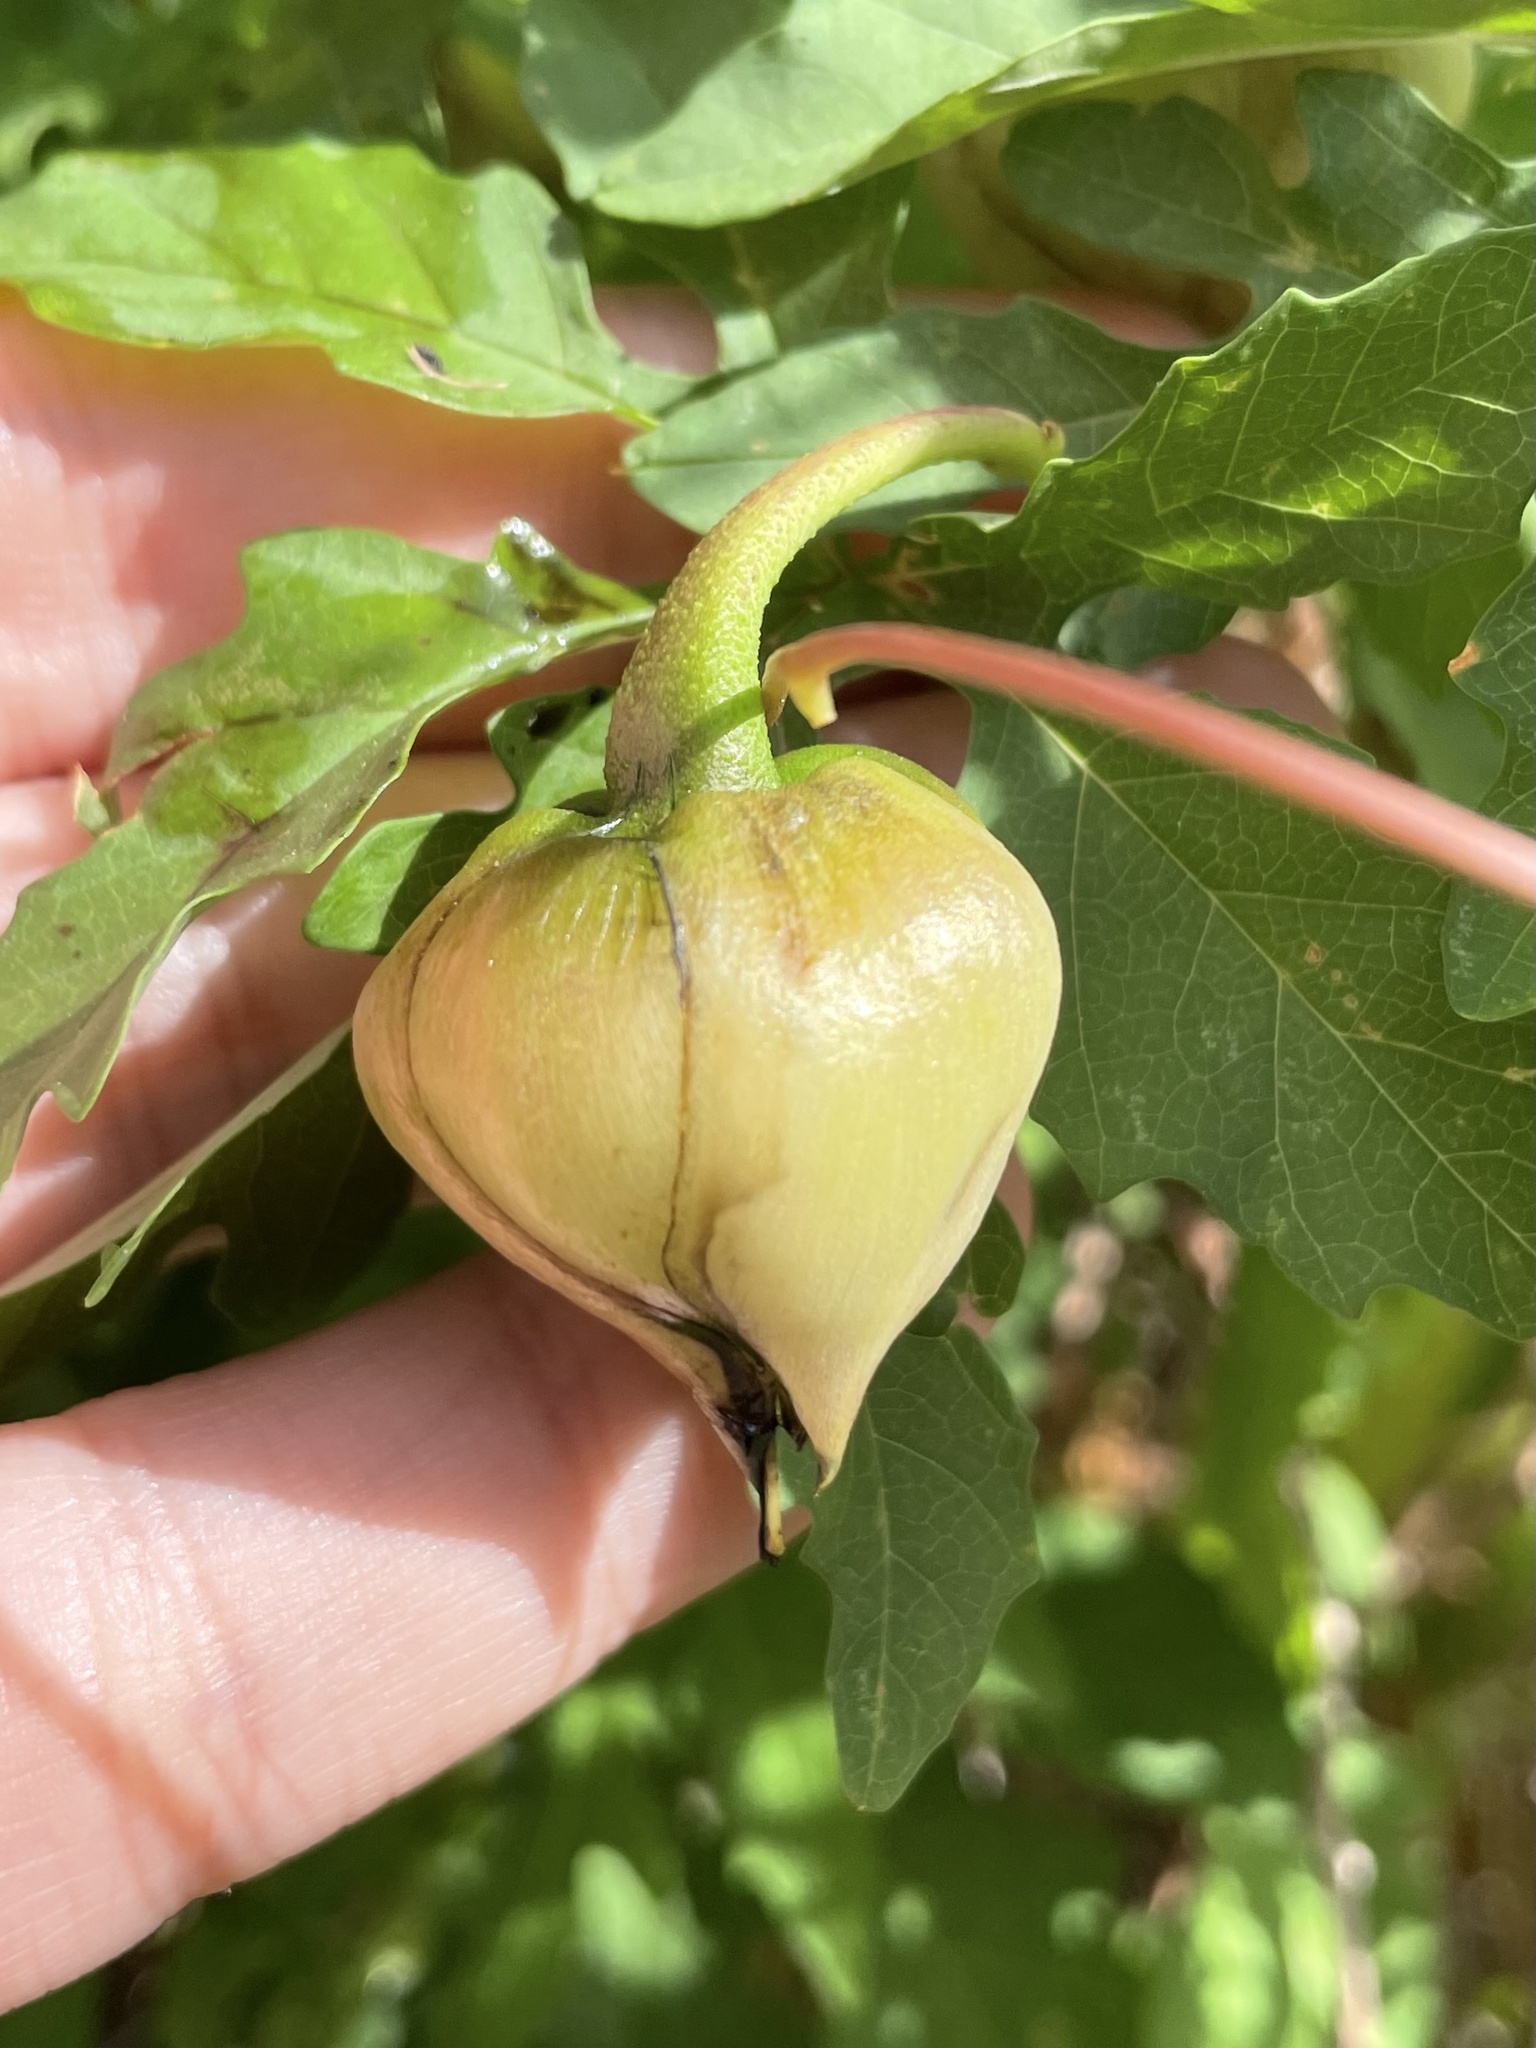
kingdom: Plantae
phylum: Tracheophyta
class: Magnoliopsida
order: Solanales
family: Convolvulaceae
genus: Distimake
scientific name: Distimake dissectus
